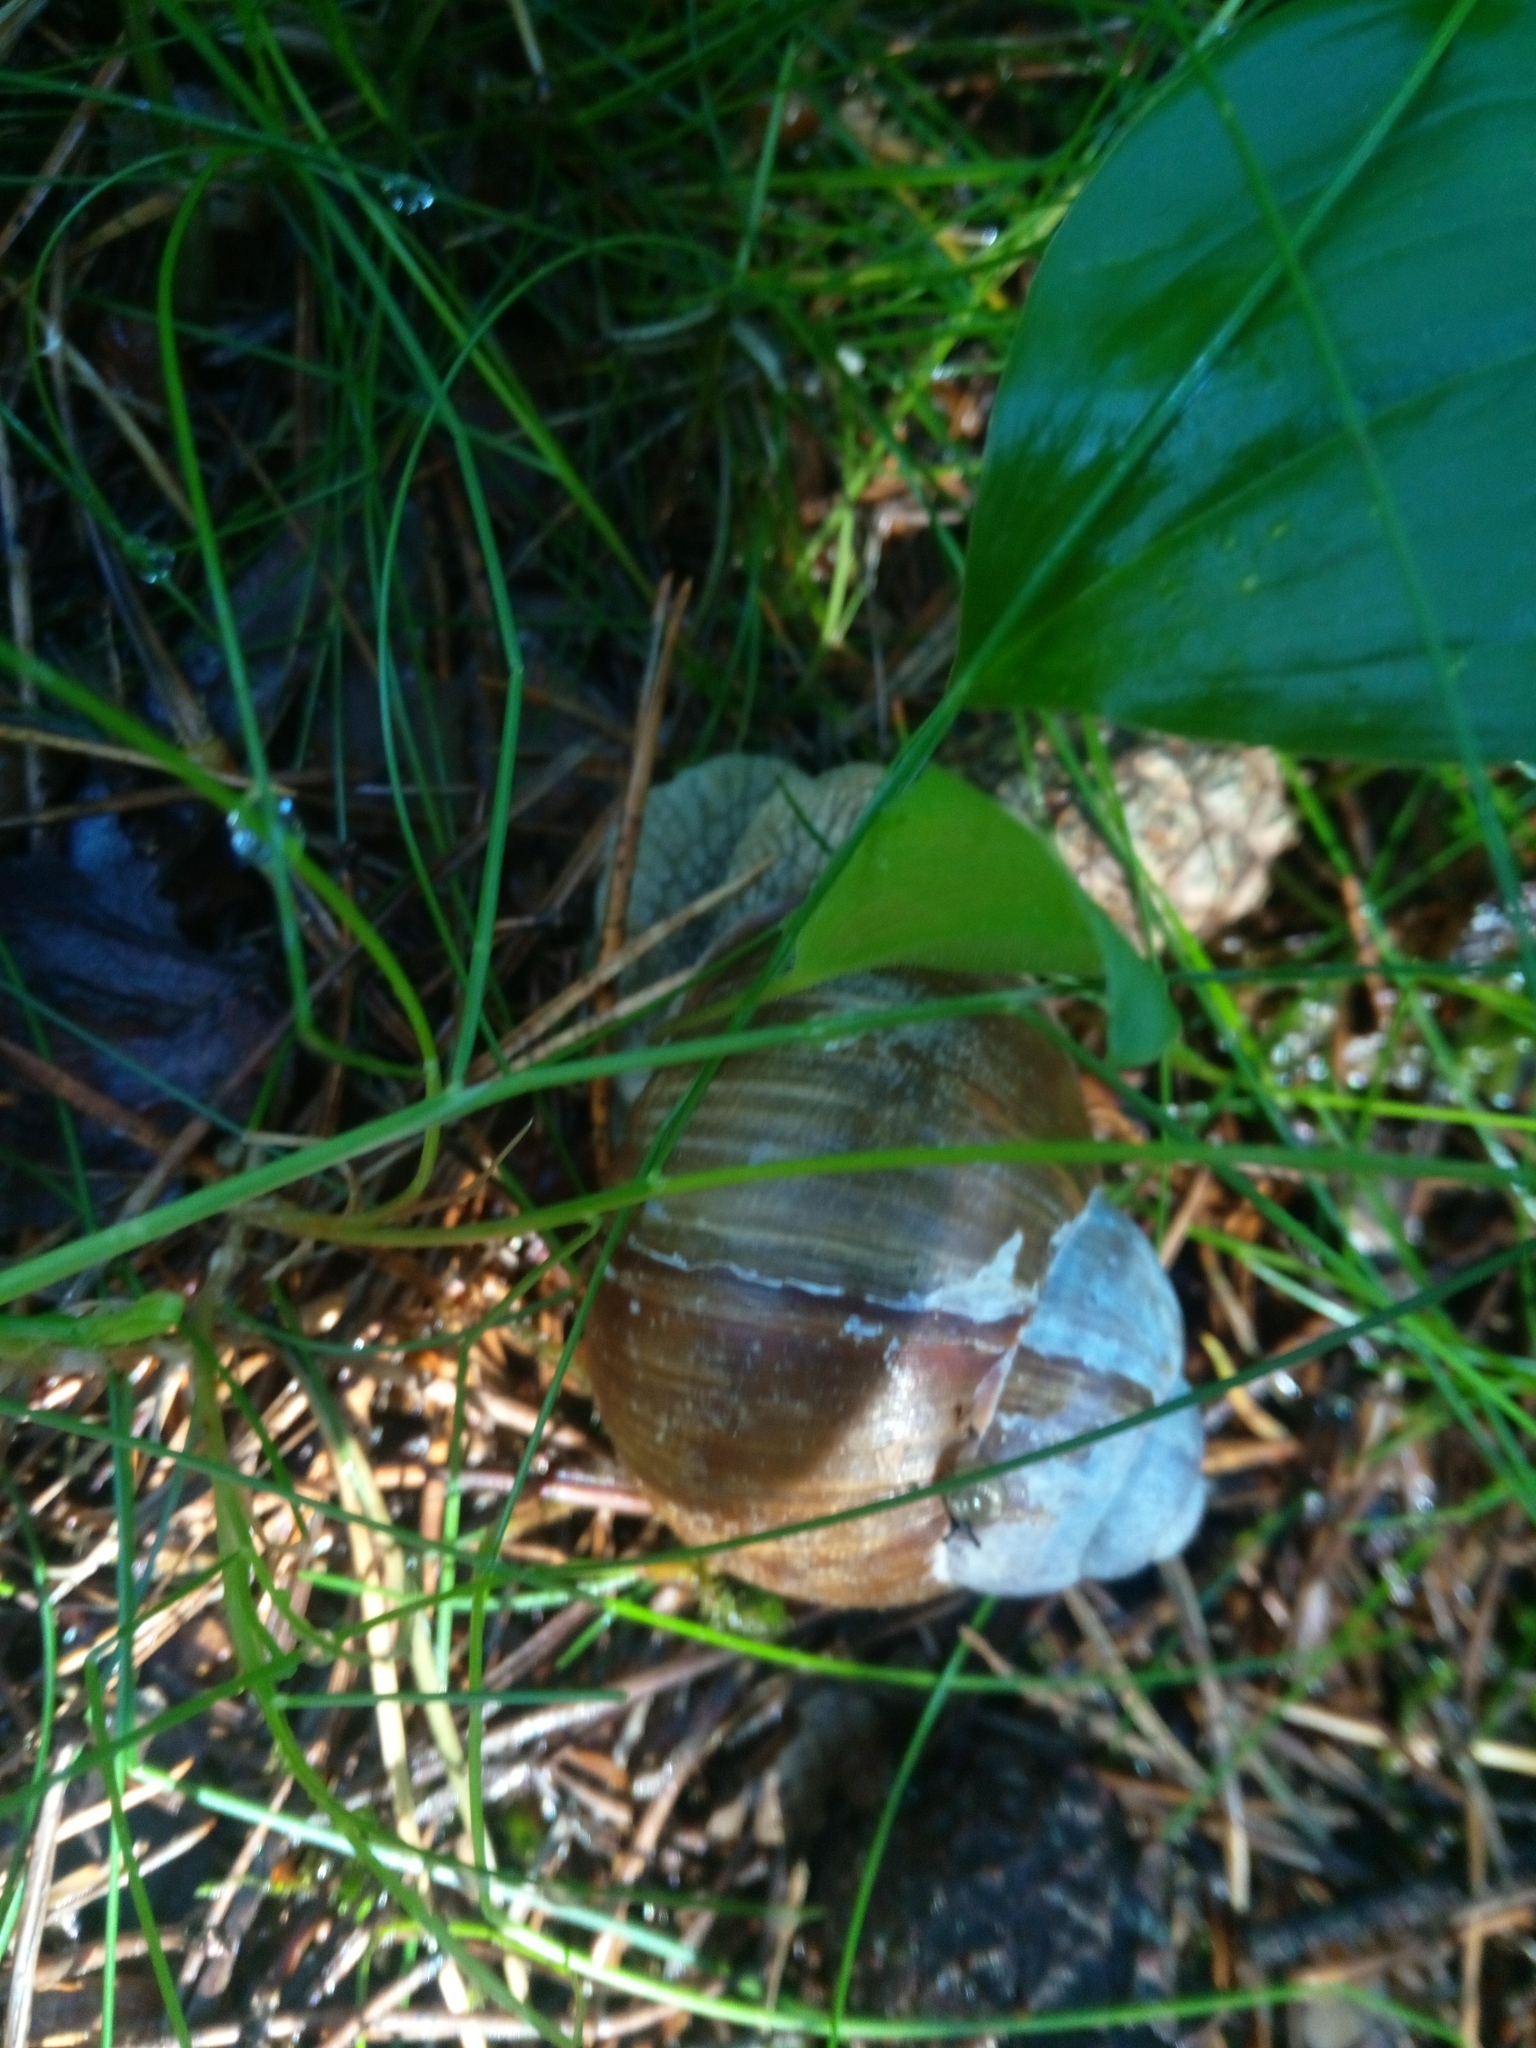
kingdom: Animalia
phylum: Mollusca
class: Gastropoda
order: Stylommatophora
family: Helicidae
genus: Helix
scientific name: Helix pomatia
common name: Roman snail
